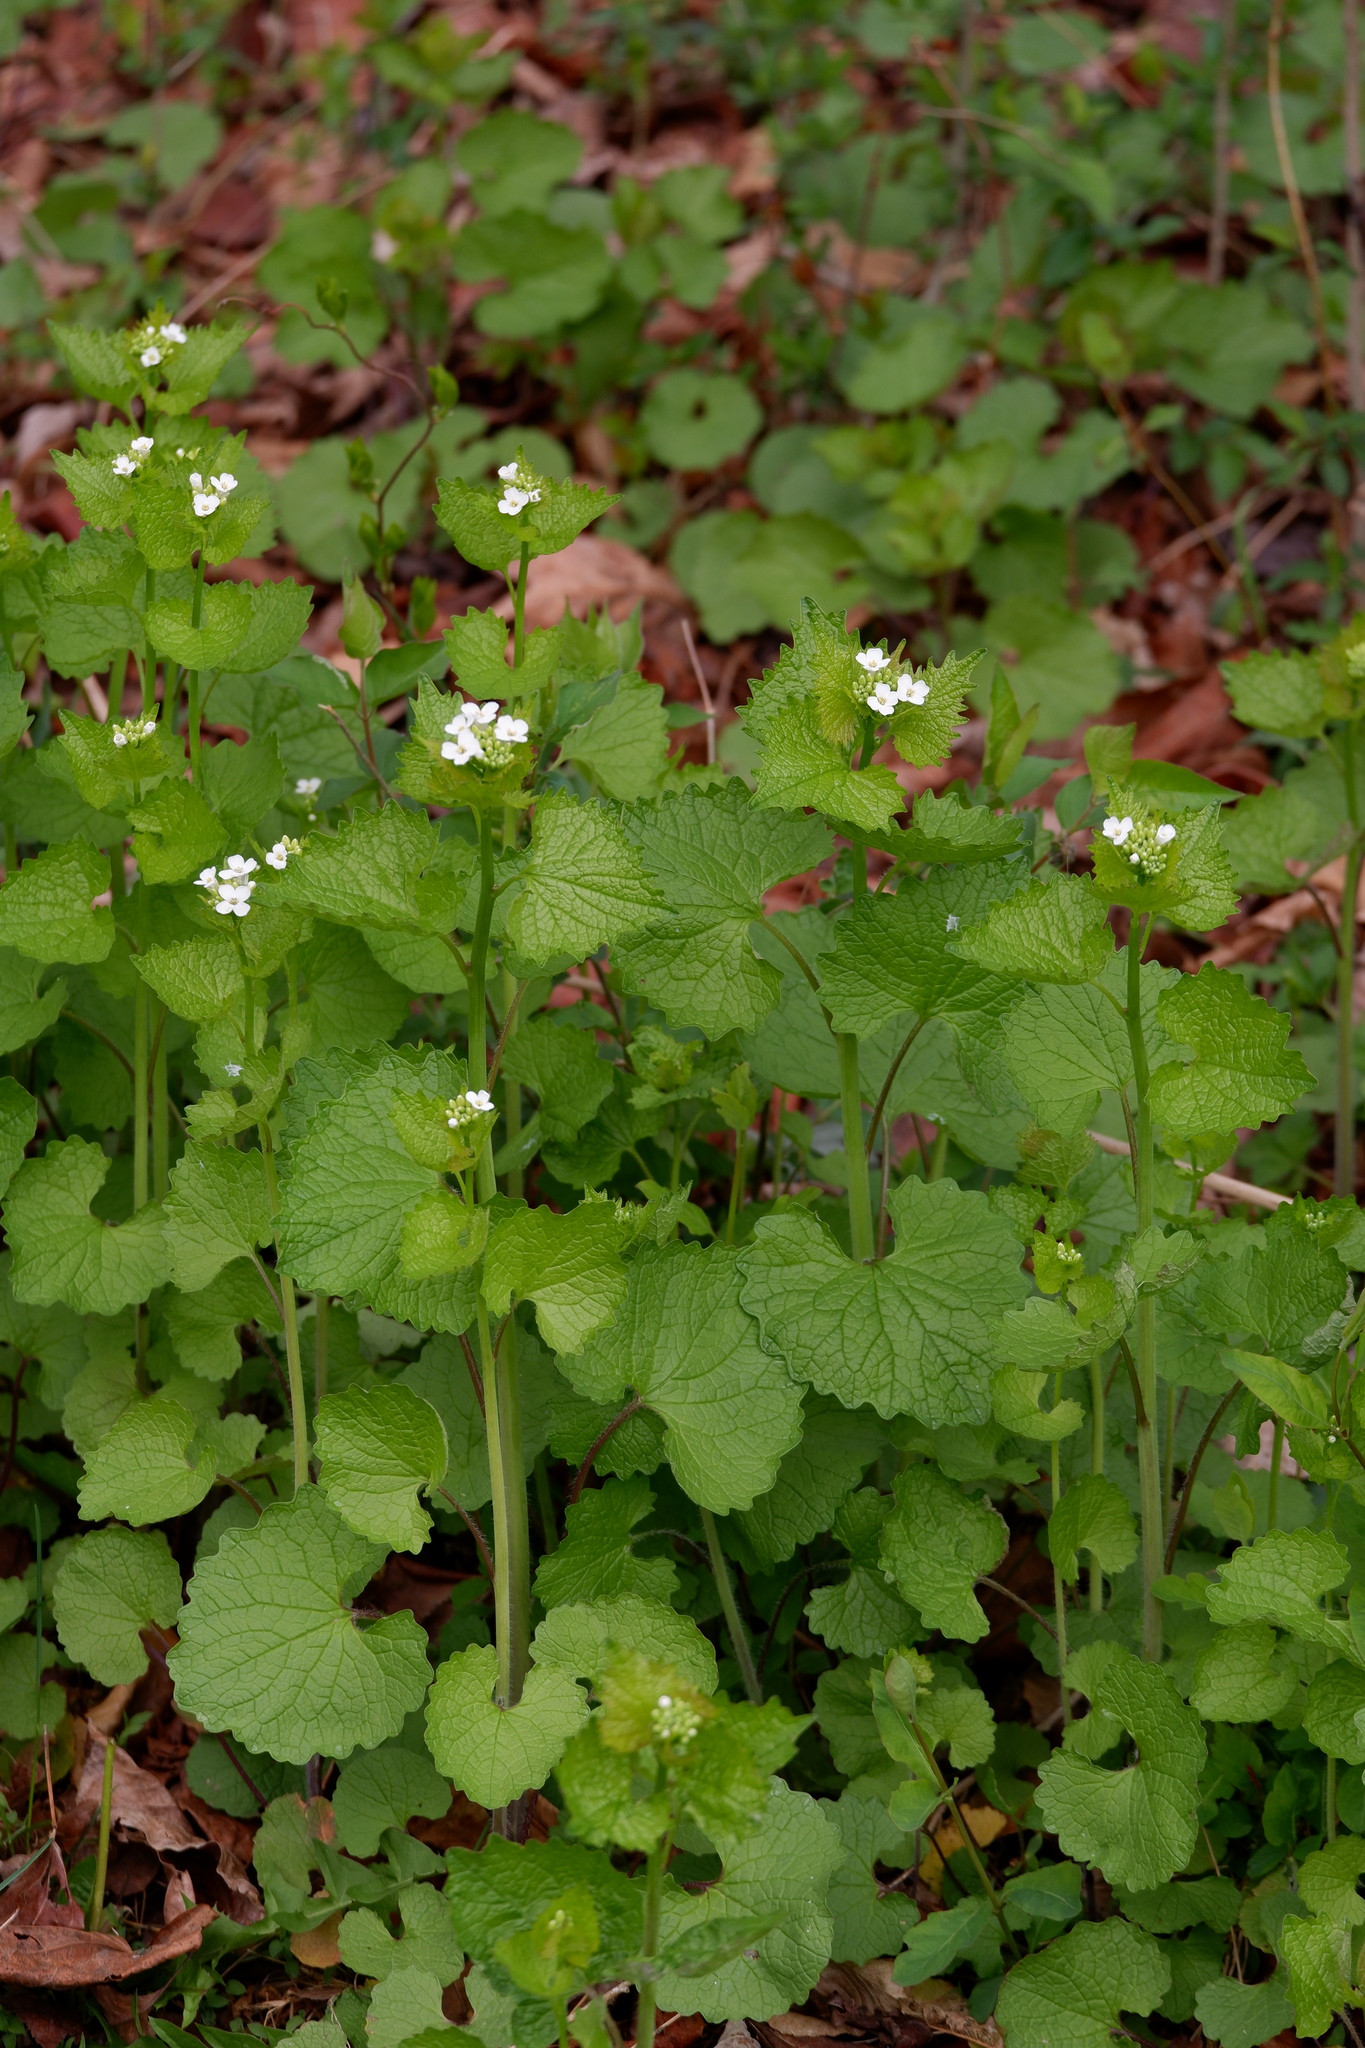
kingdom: Plantae
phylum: Tracheophyta
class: Magnoliopsida
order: Brassicales
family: Brassicaceae
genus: Alliaria
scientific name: Alliaria petiolata
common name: Garlic mustard
